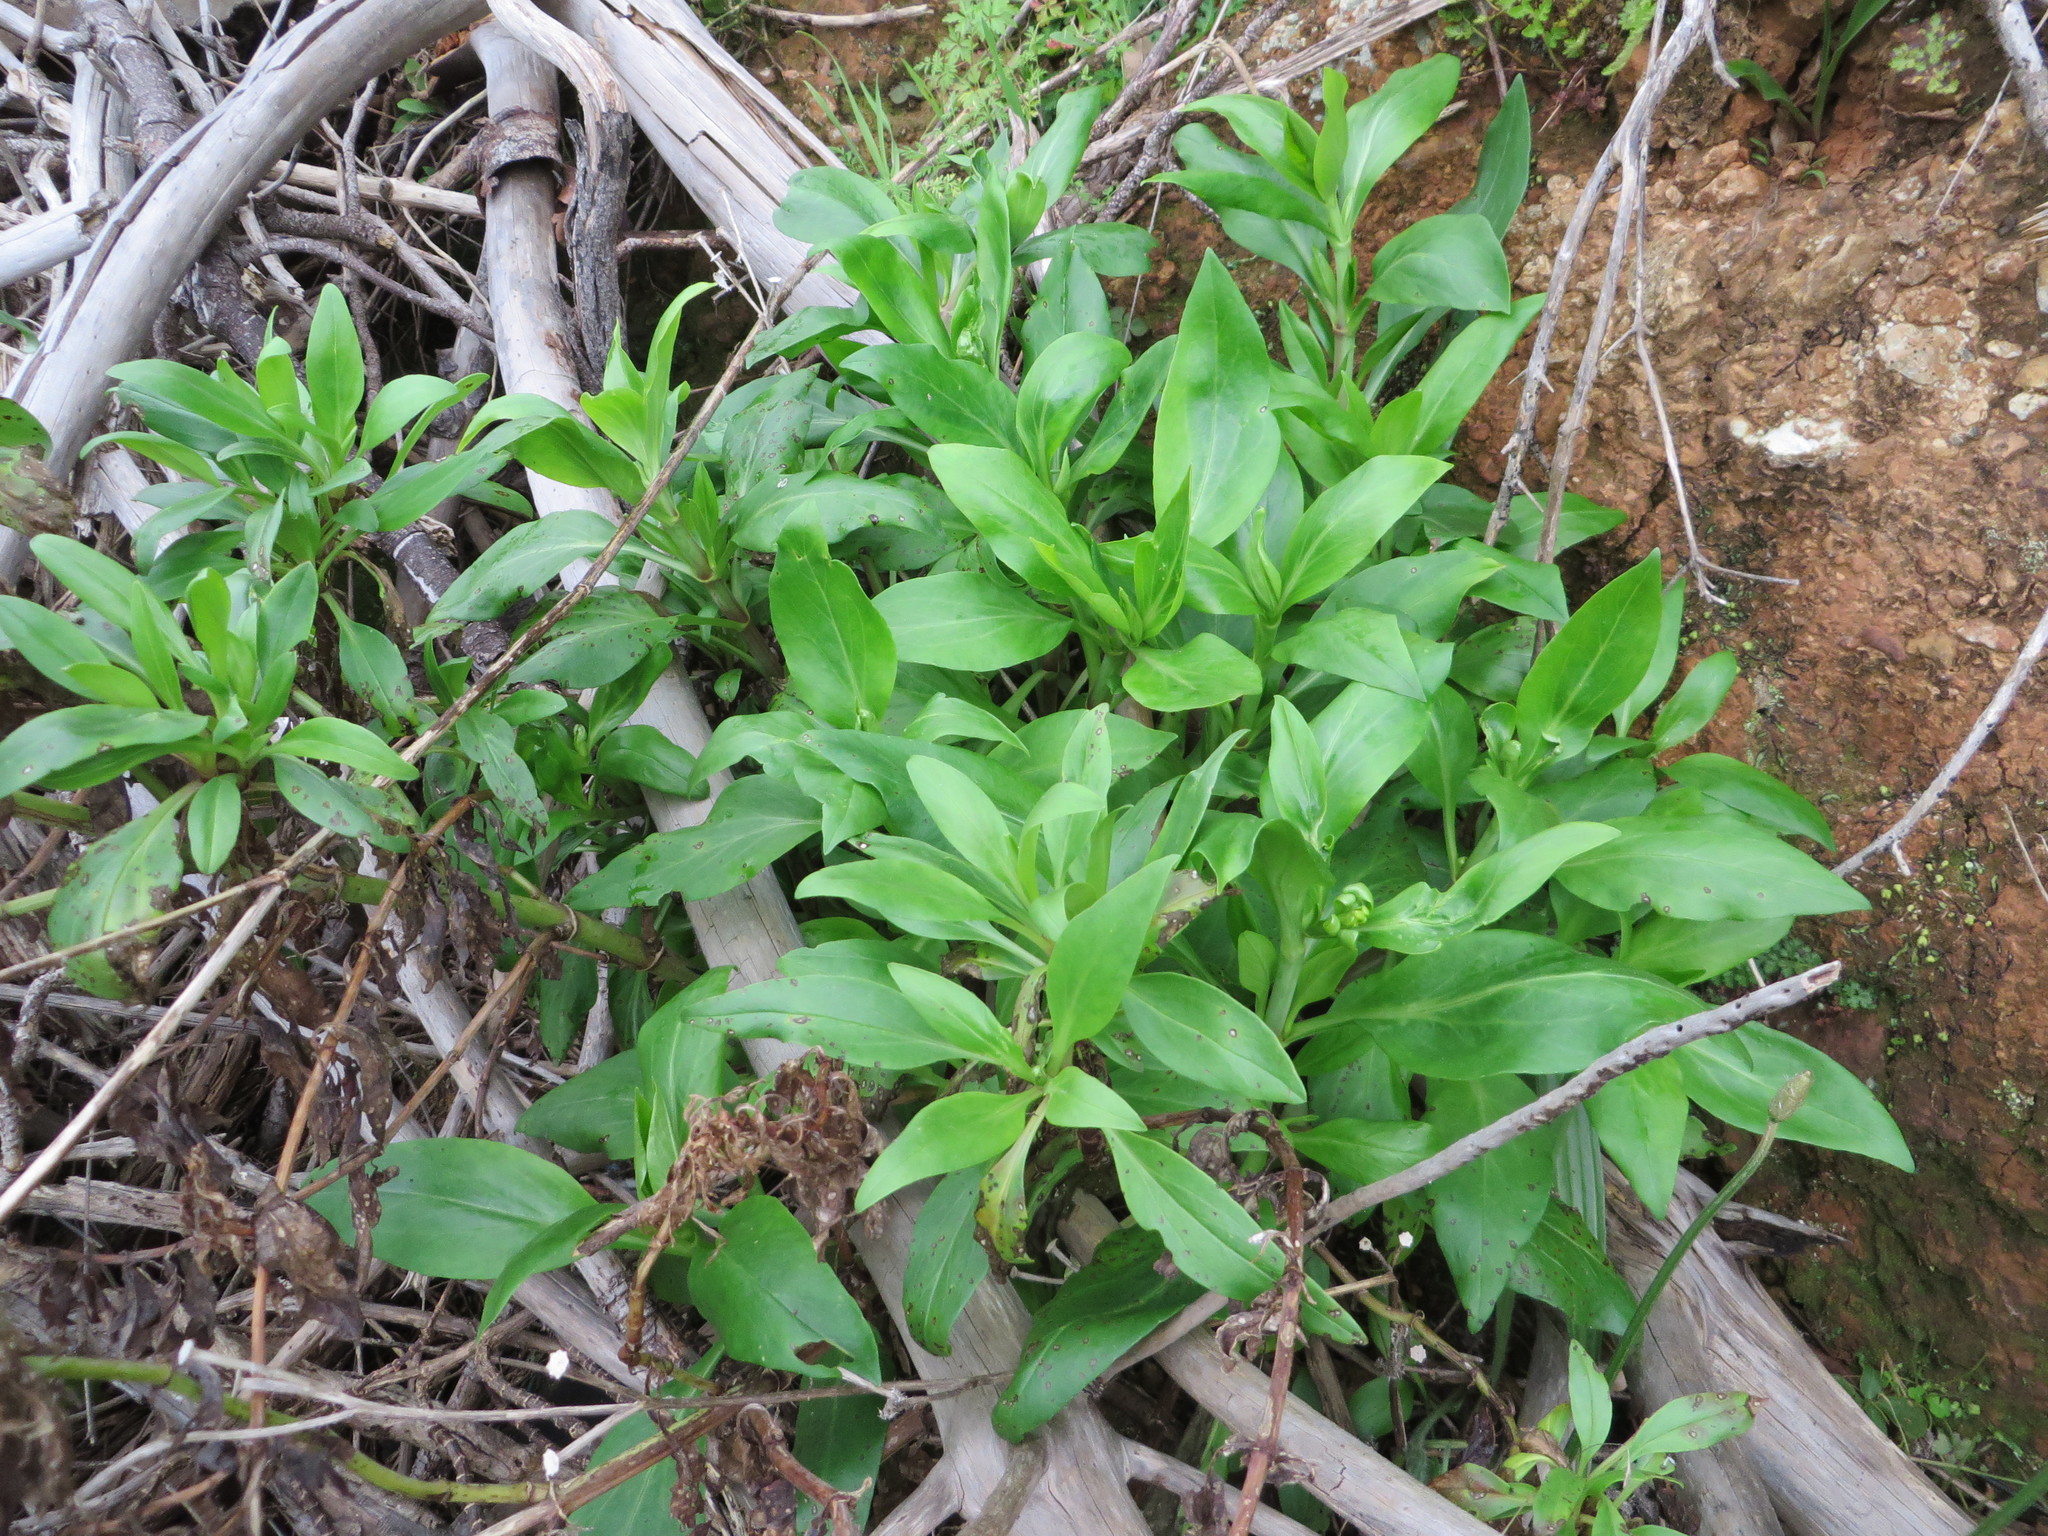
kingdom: Plantae
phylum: Tracheophyta
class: Magnoliopsida
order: Dipsacales
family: Caprifoliaceae
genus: Centranthus
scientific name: Centranthus ruber
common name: Red valerian
